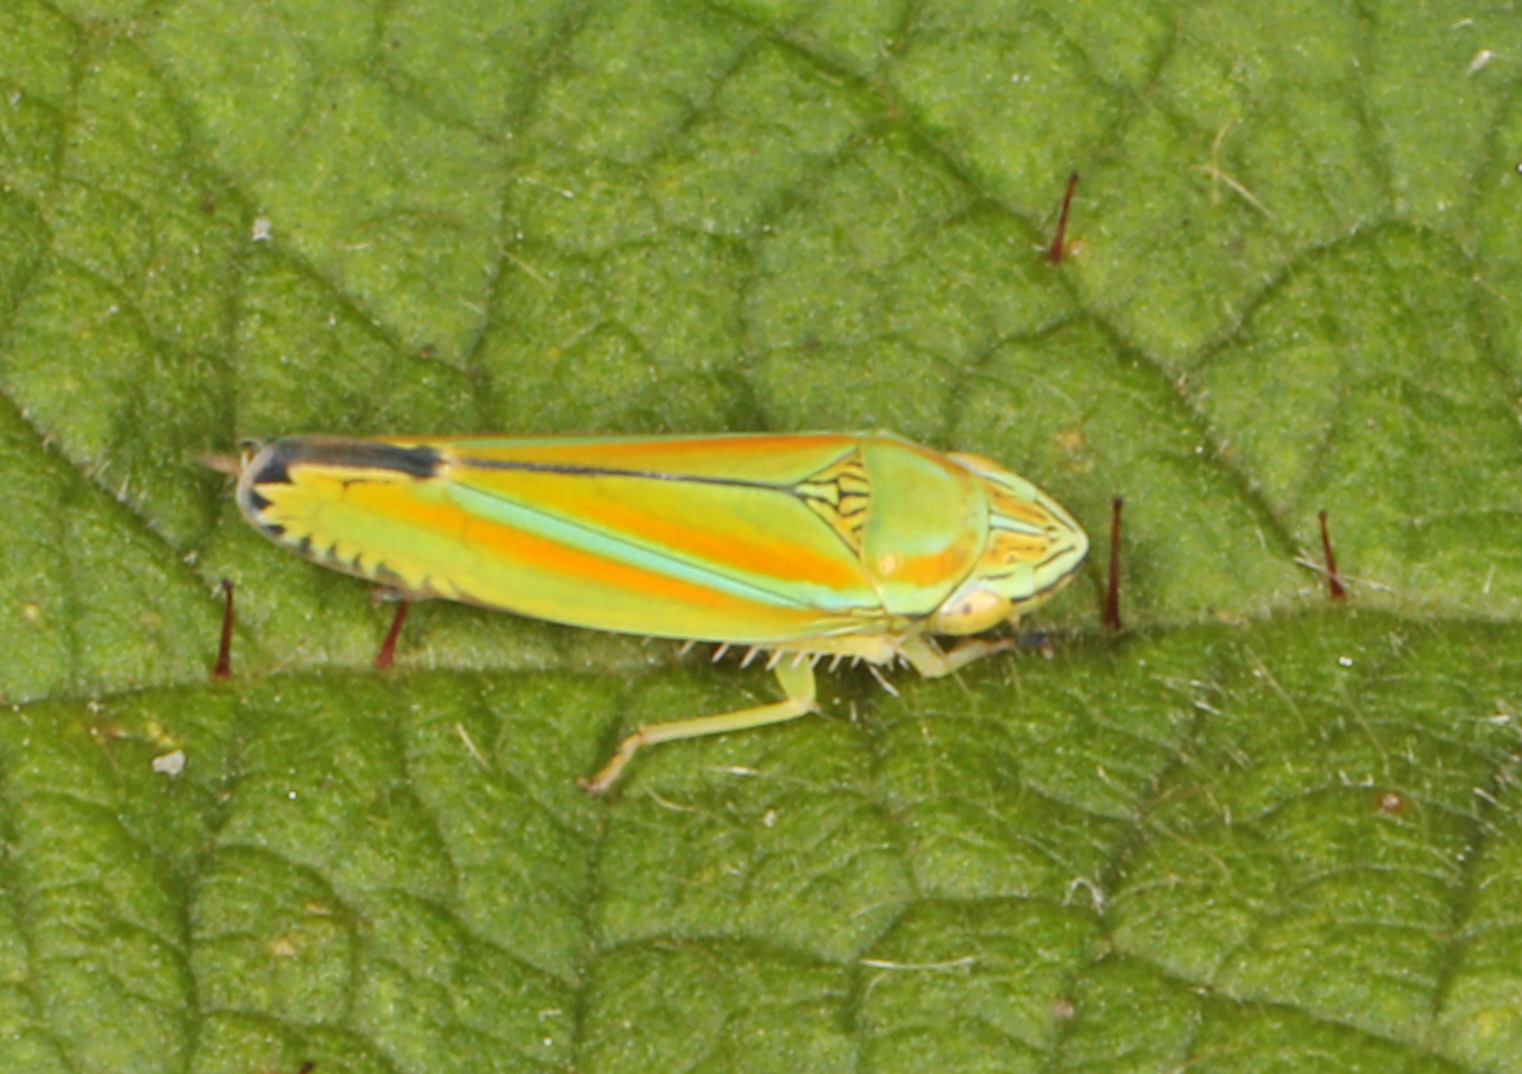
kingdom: Animalia
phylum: Arthropoda
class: Insecta
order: Hemiptera
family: Cicadellidae
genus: Graphocephala
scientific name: Graphocephala versuta
